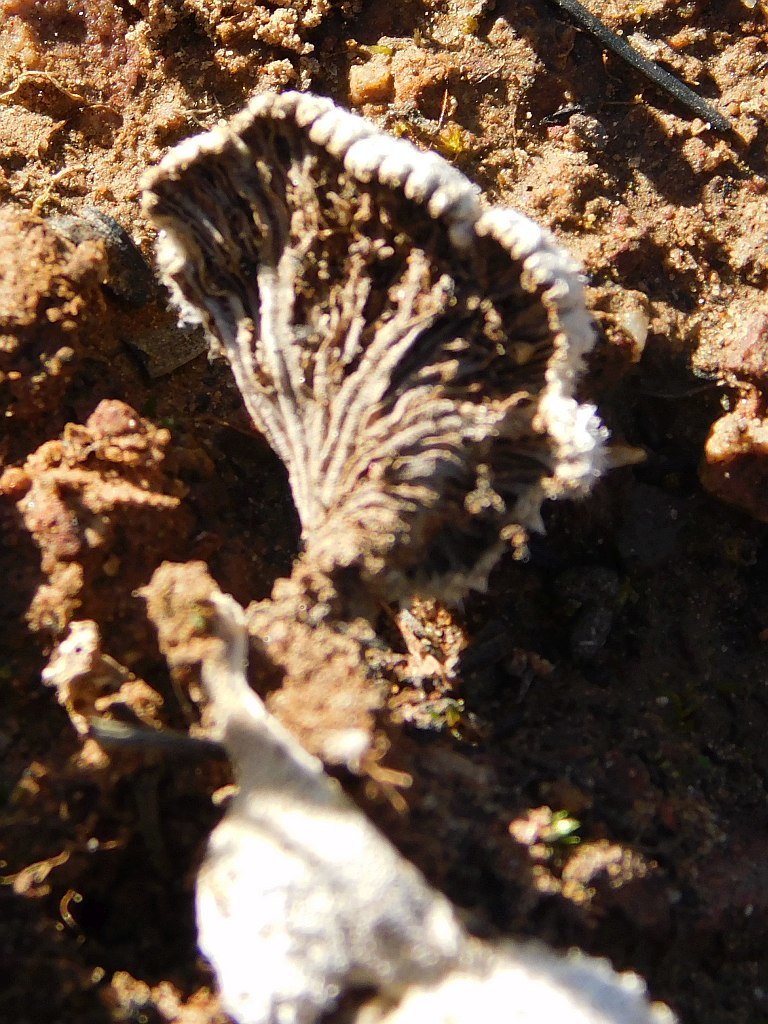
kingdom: Fungi
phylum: Basidiomycota
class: Agaricomycetes
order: Agaricales
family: Schizophyllaceae
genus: Schizophyllum
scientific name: Schizophyllum commune
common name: Common porecrust
